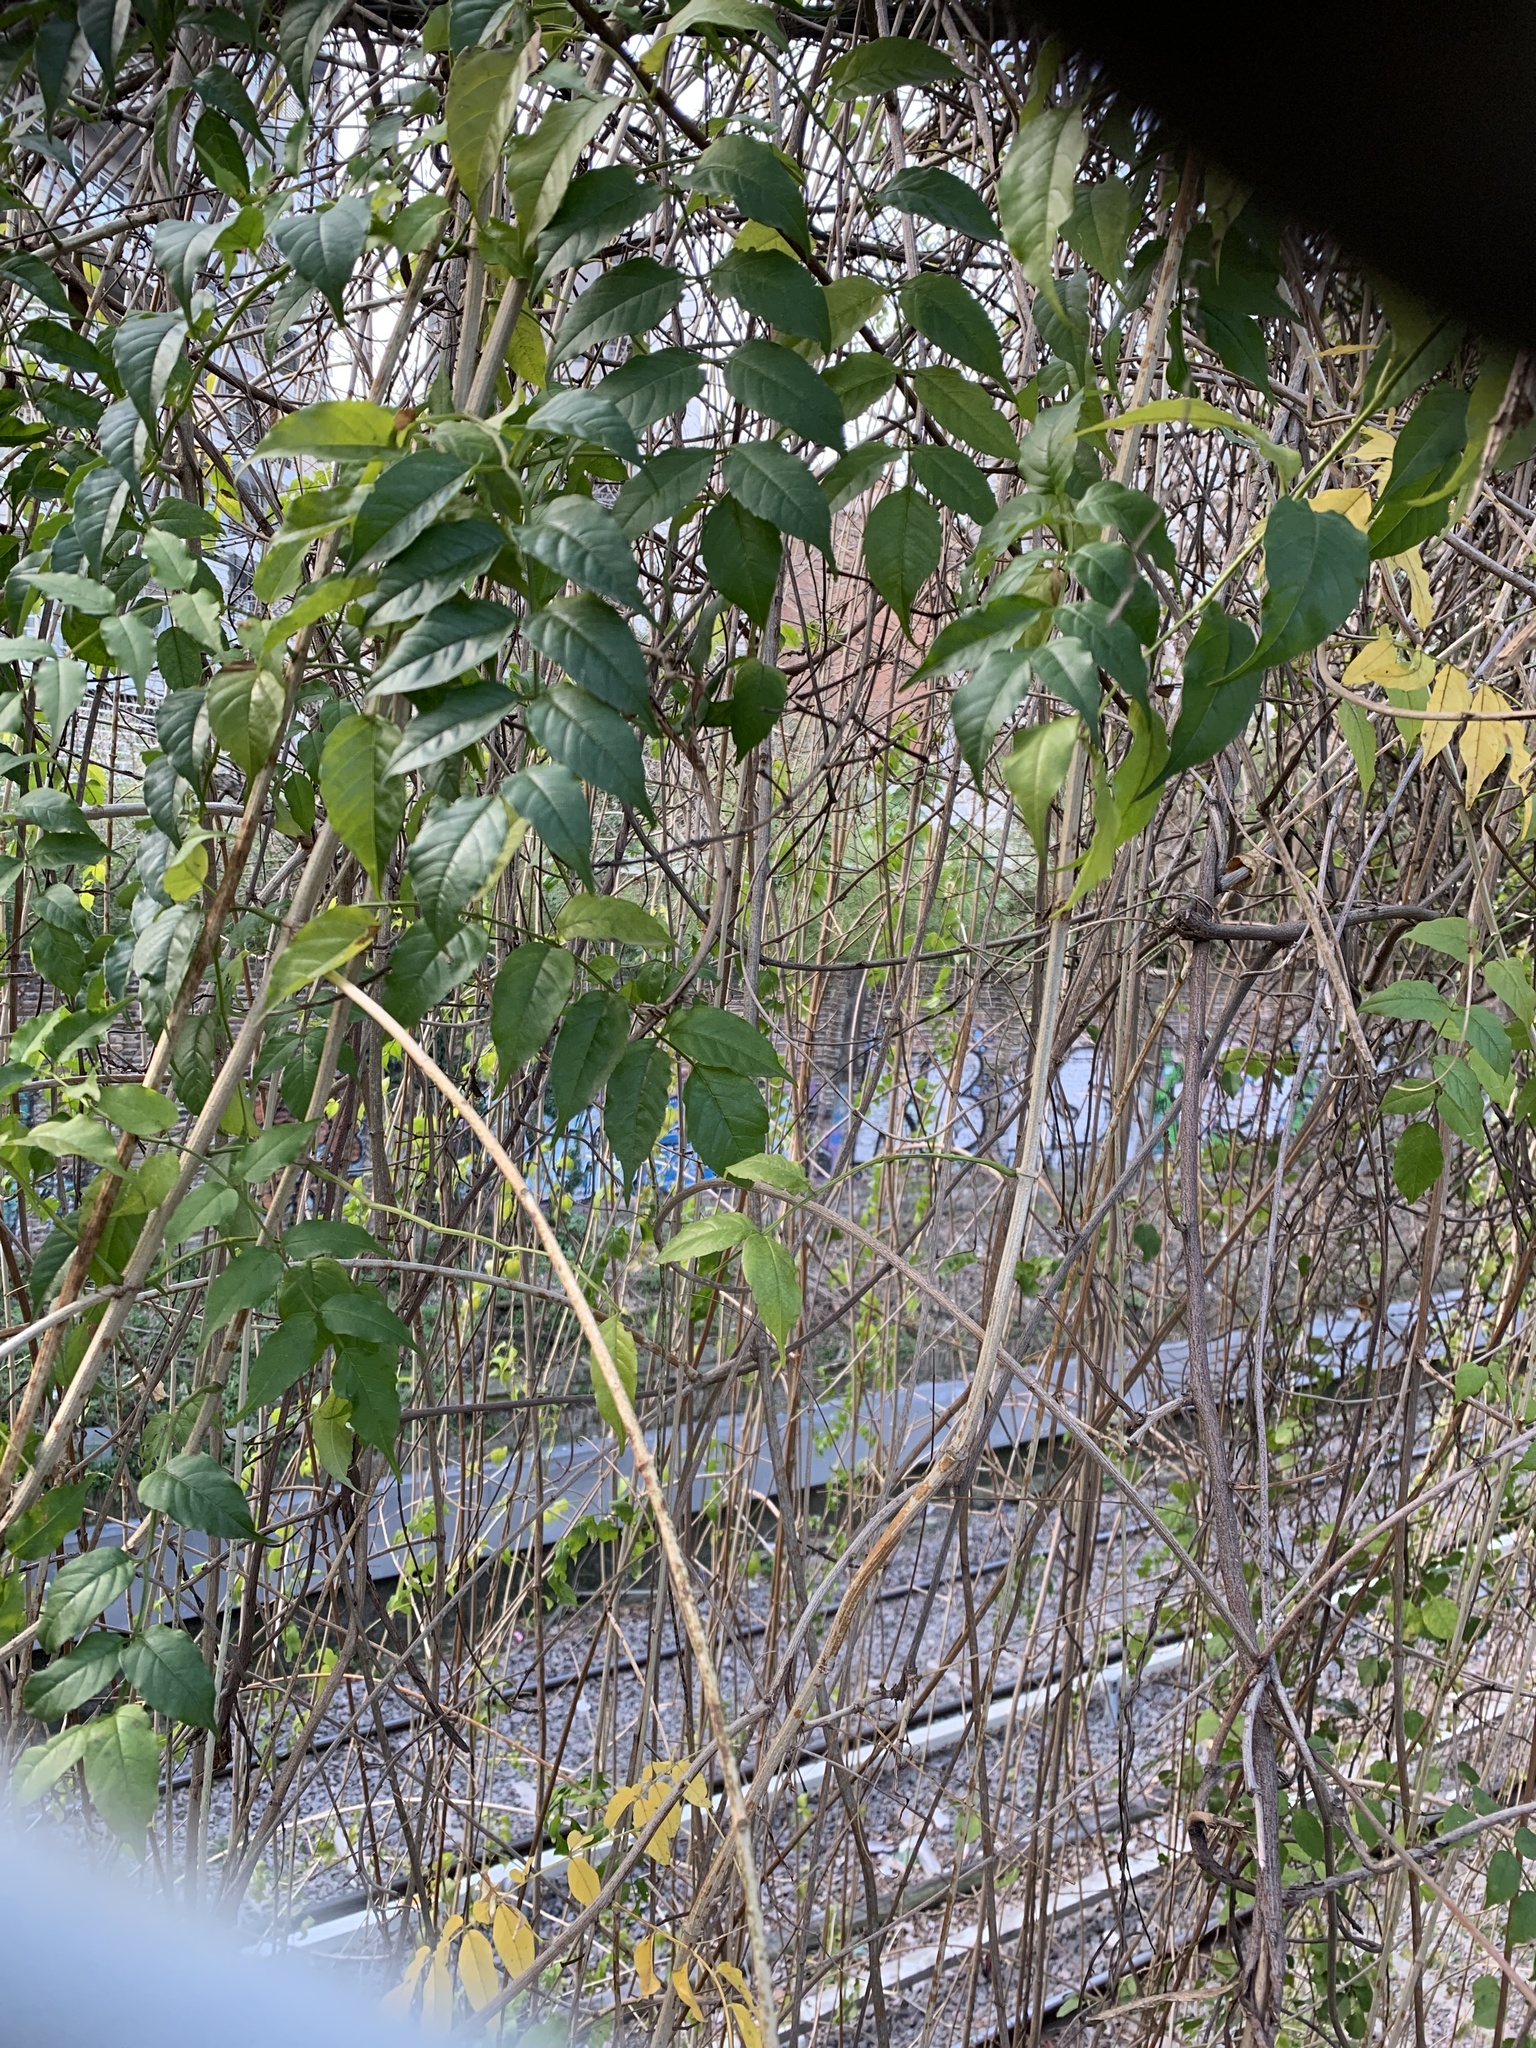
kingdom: Plantae
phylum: Tracheophyta
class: Magnoliopsida
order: Lamiales
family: Bignoniaceae
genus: Podranea
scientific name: Podranea ricasoliana
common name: Zimbabwe creeper
